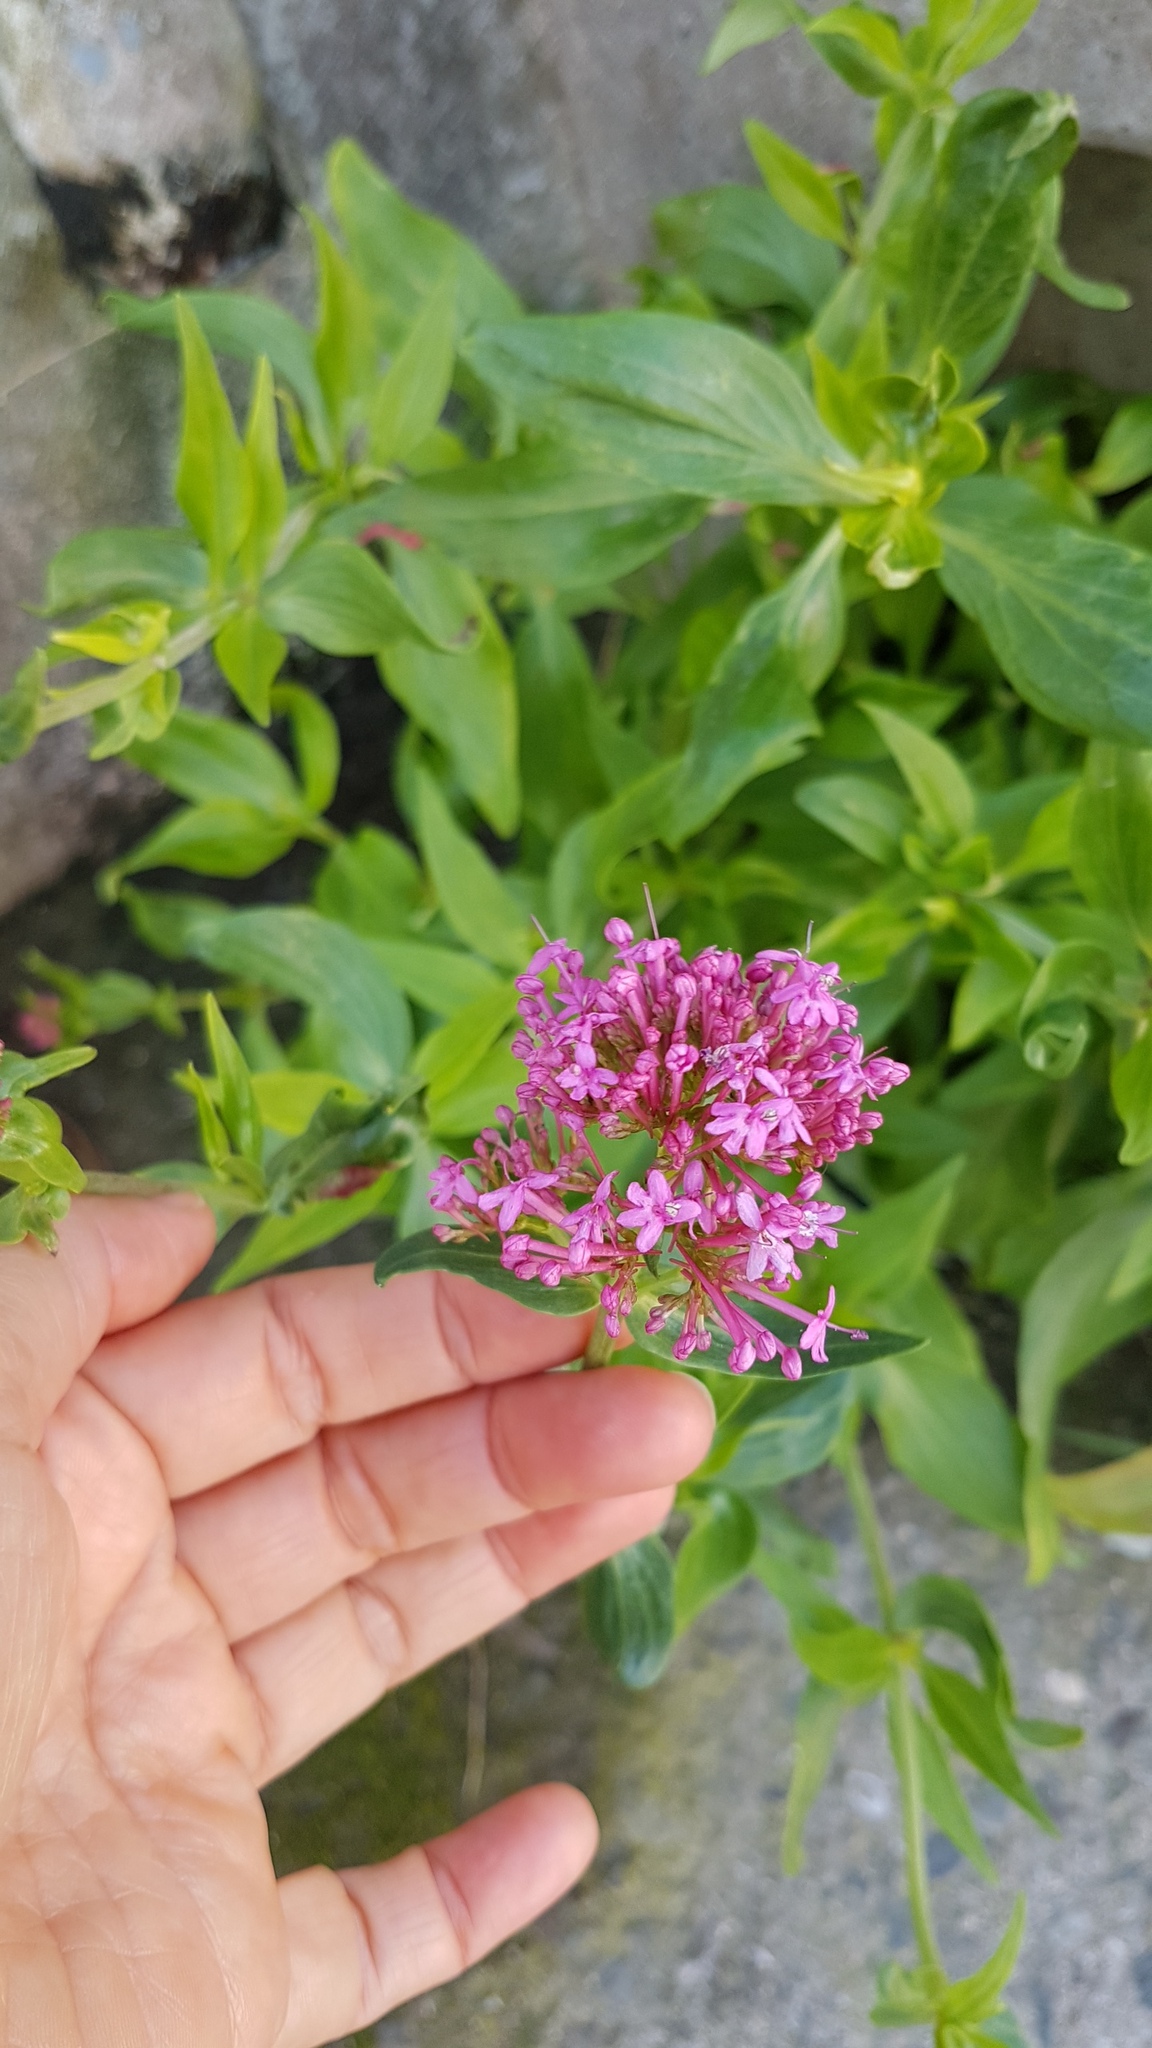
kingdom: Plantae
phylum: Tracheophyta
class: Magnoliopsida
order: Dipsacales
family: Caprifoliaceae
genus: Centranthus
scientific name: Centranthus ruber
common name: Red valerian
